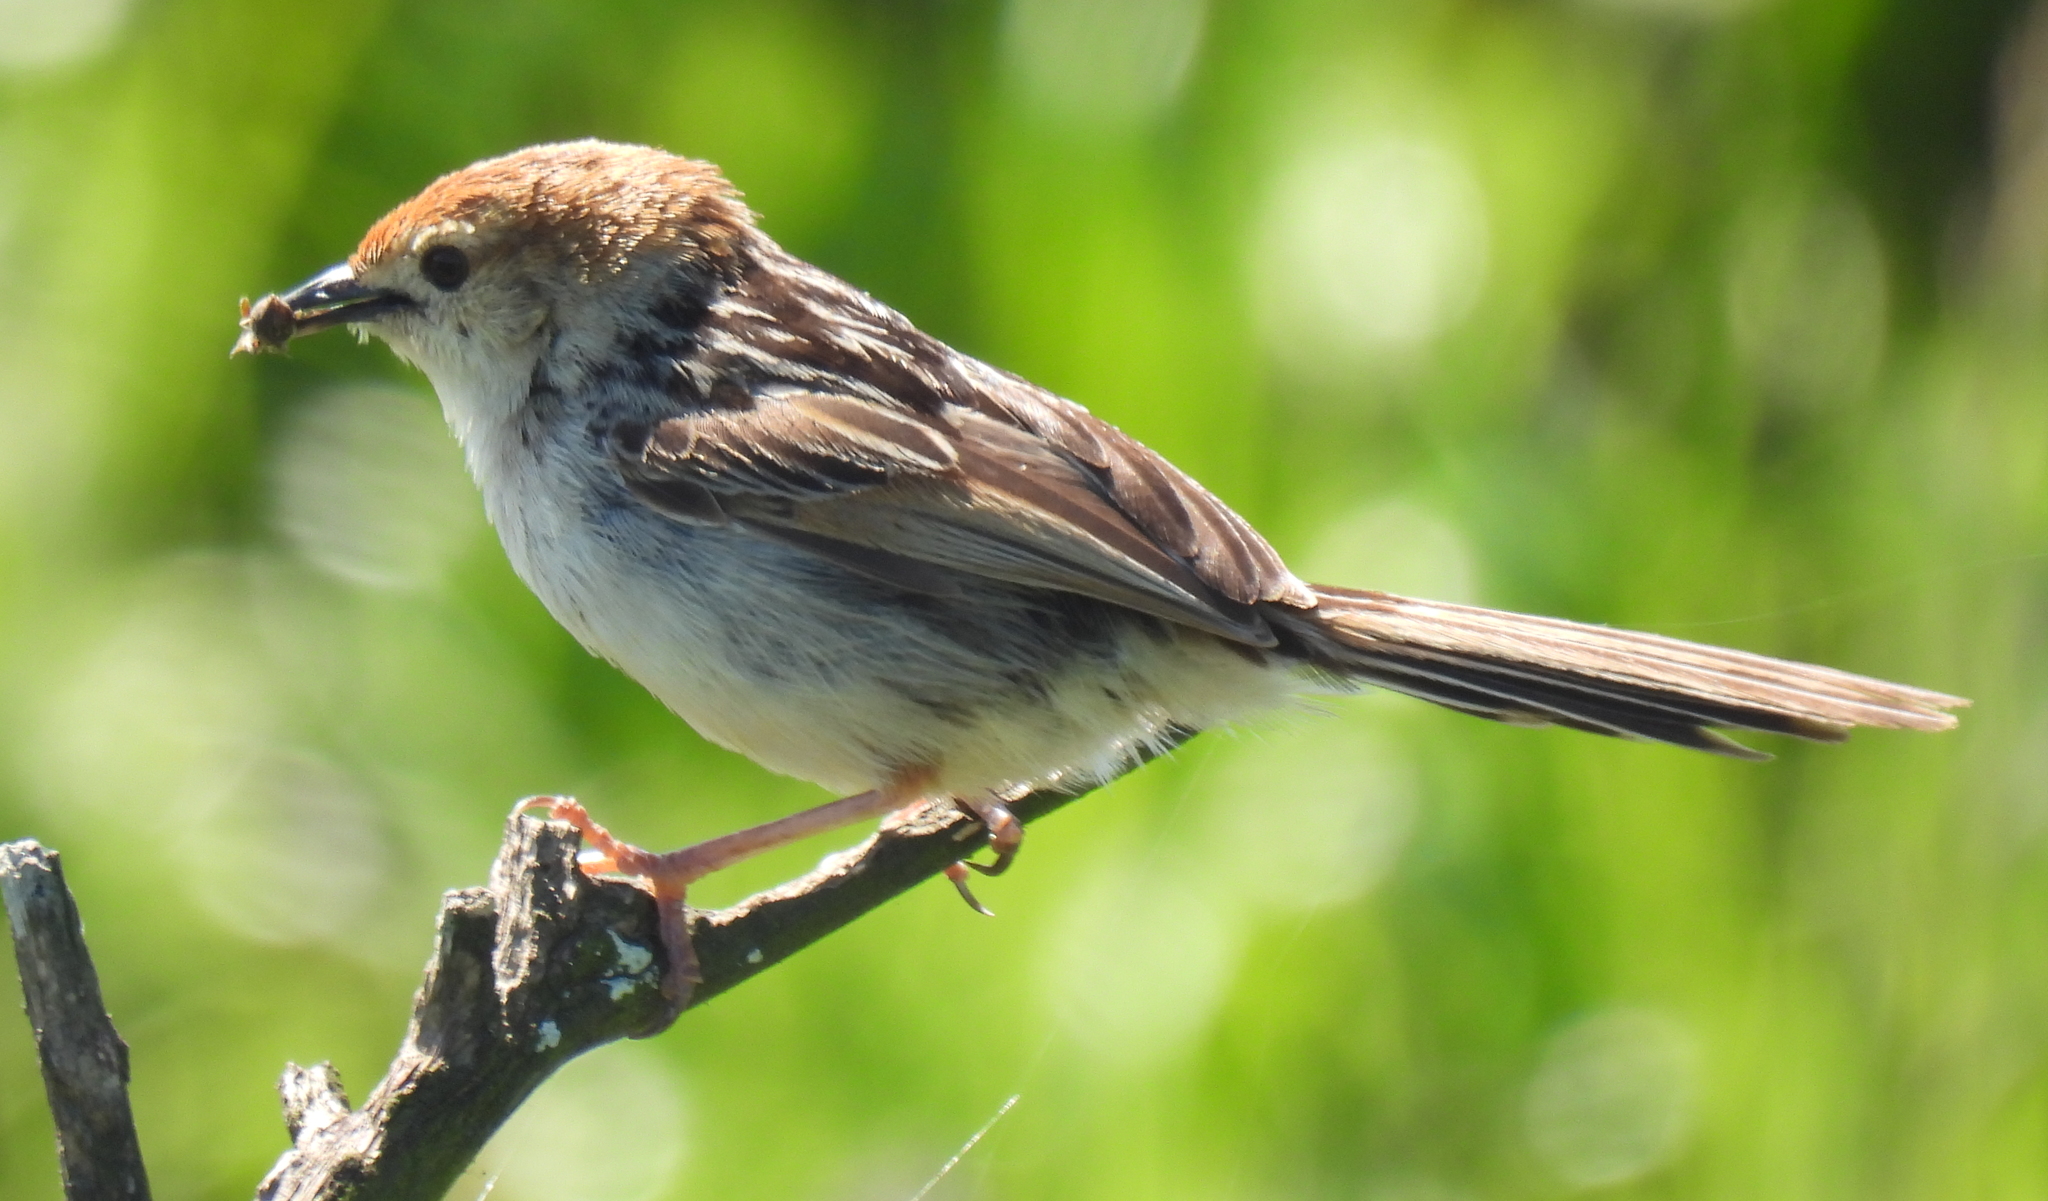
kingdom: Animalia
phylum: Chordata
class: Aves
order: Passeriformes
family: Cisticolidae
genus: Cisticola
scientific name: Cisticola tinniens
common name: Levaillant's cisticola
